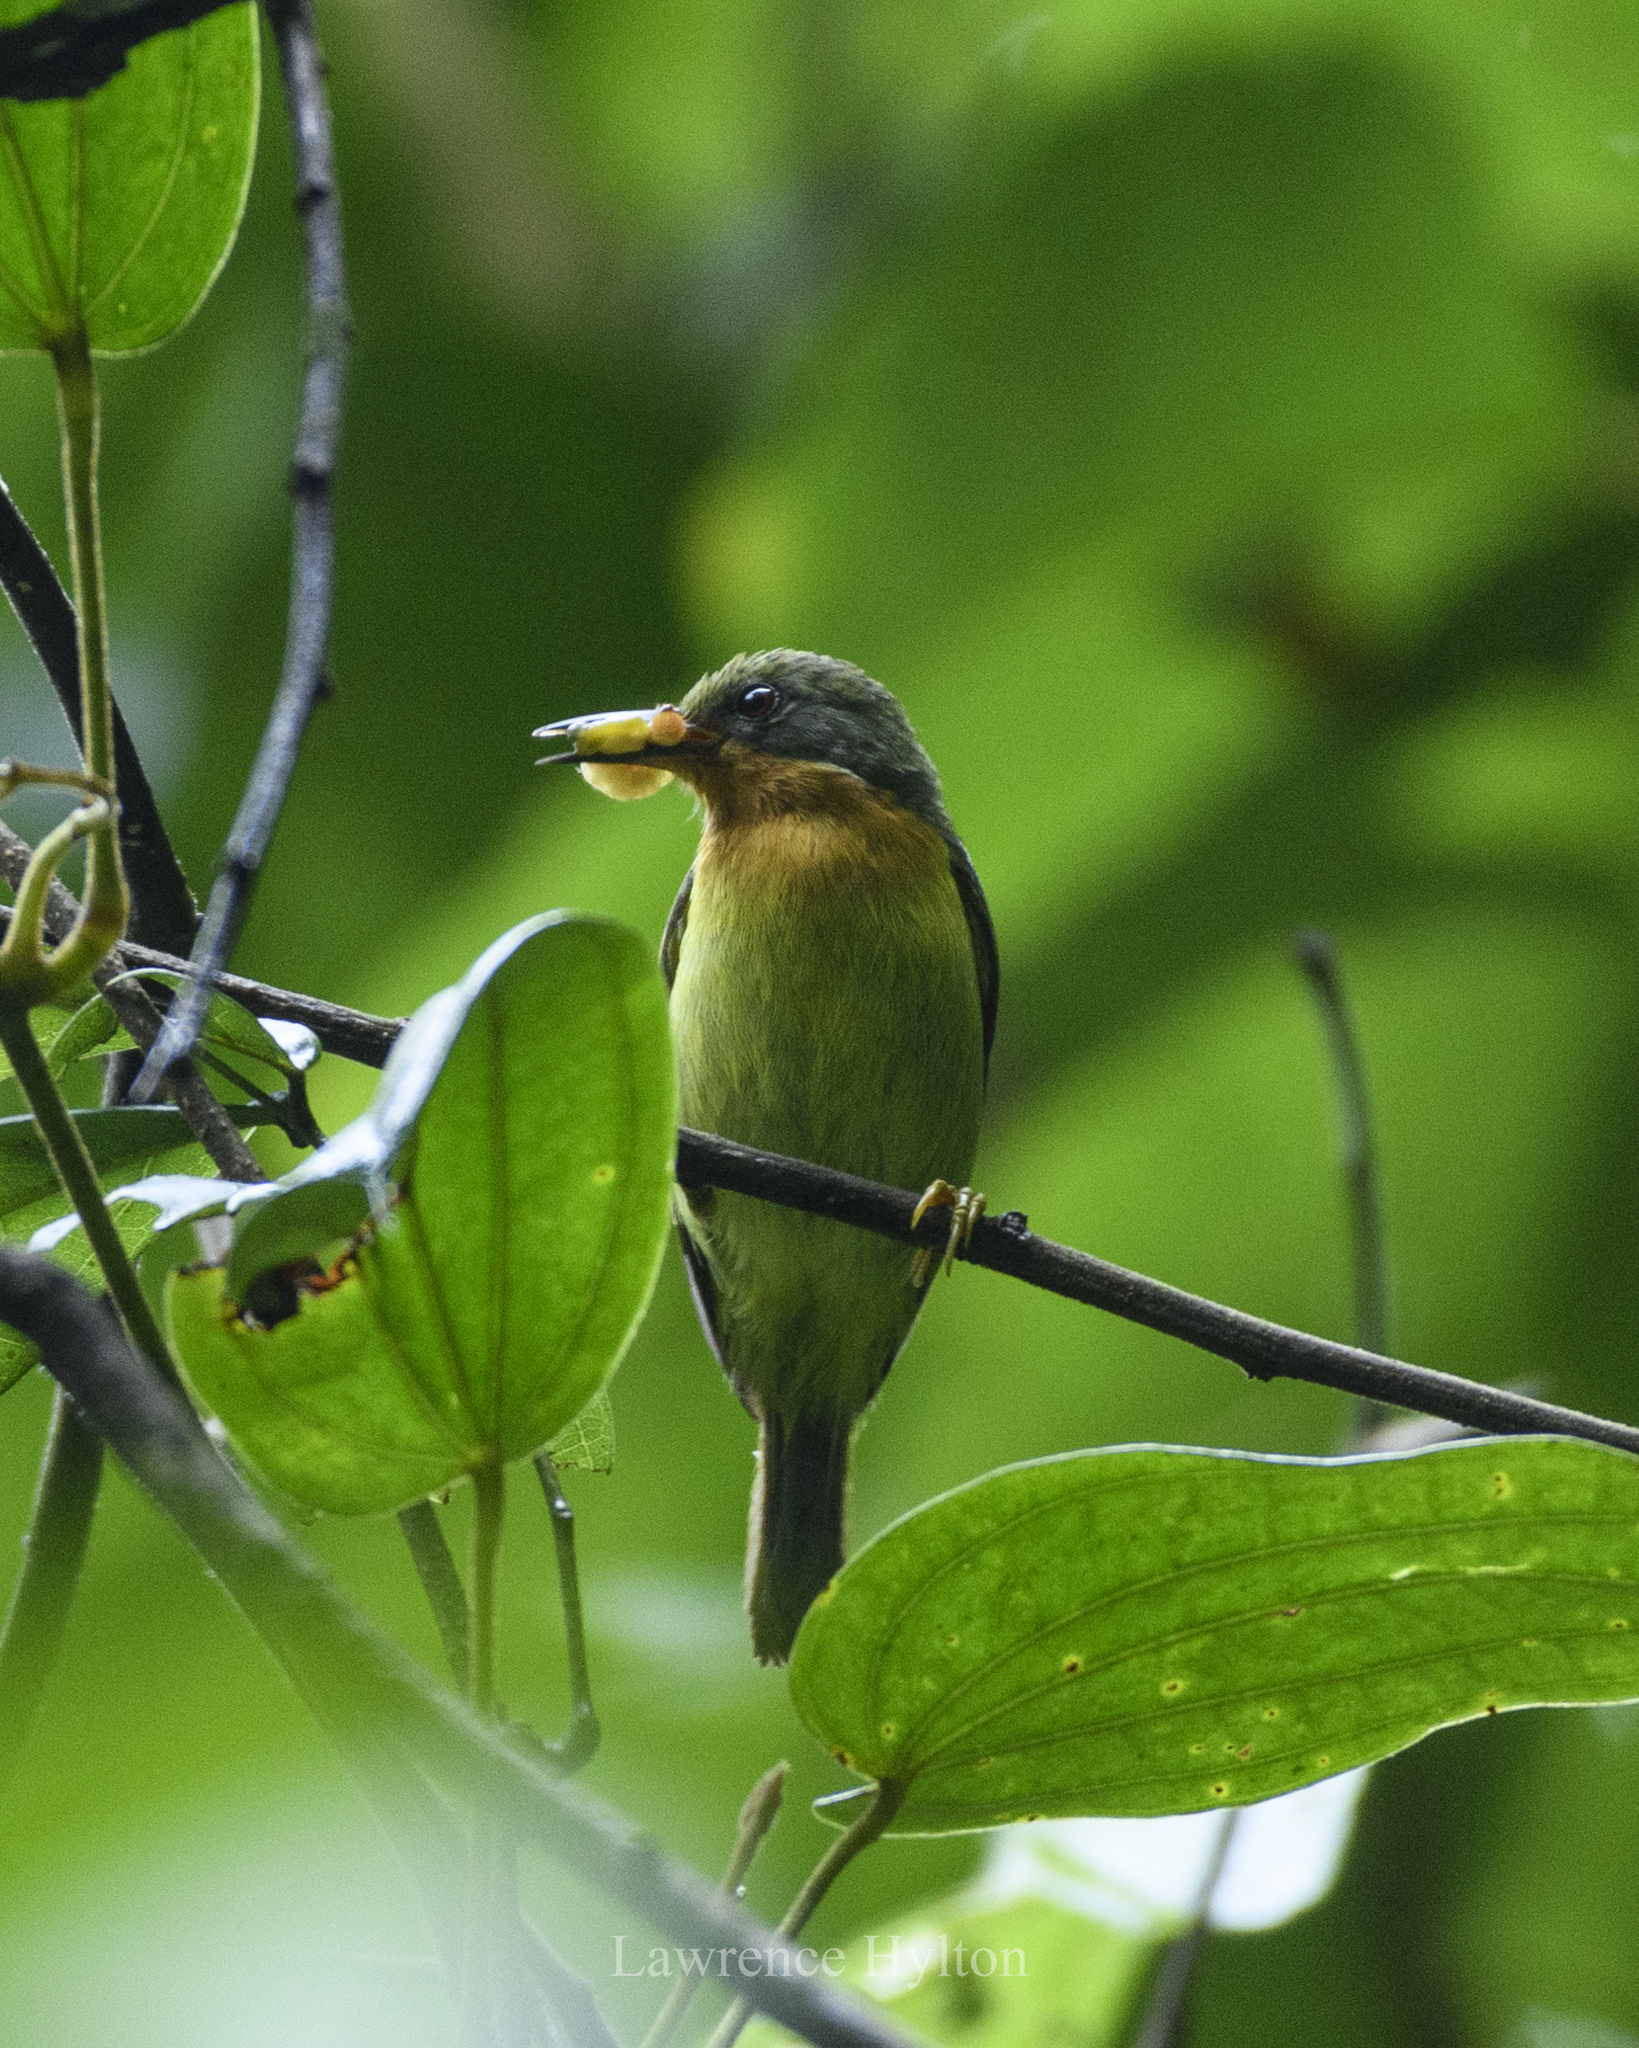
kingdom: Animalia
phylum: Chordata
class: Aves
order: Passeriformes
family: Nectariniidae
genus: Chalcoparia
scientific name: Chalcoparia singalensis
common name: Ruby-cheeked sunbird
